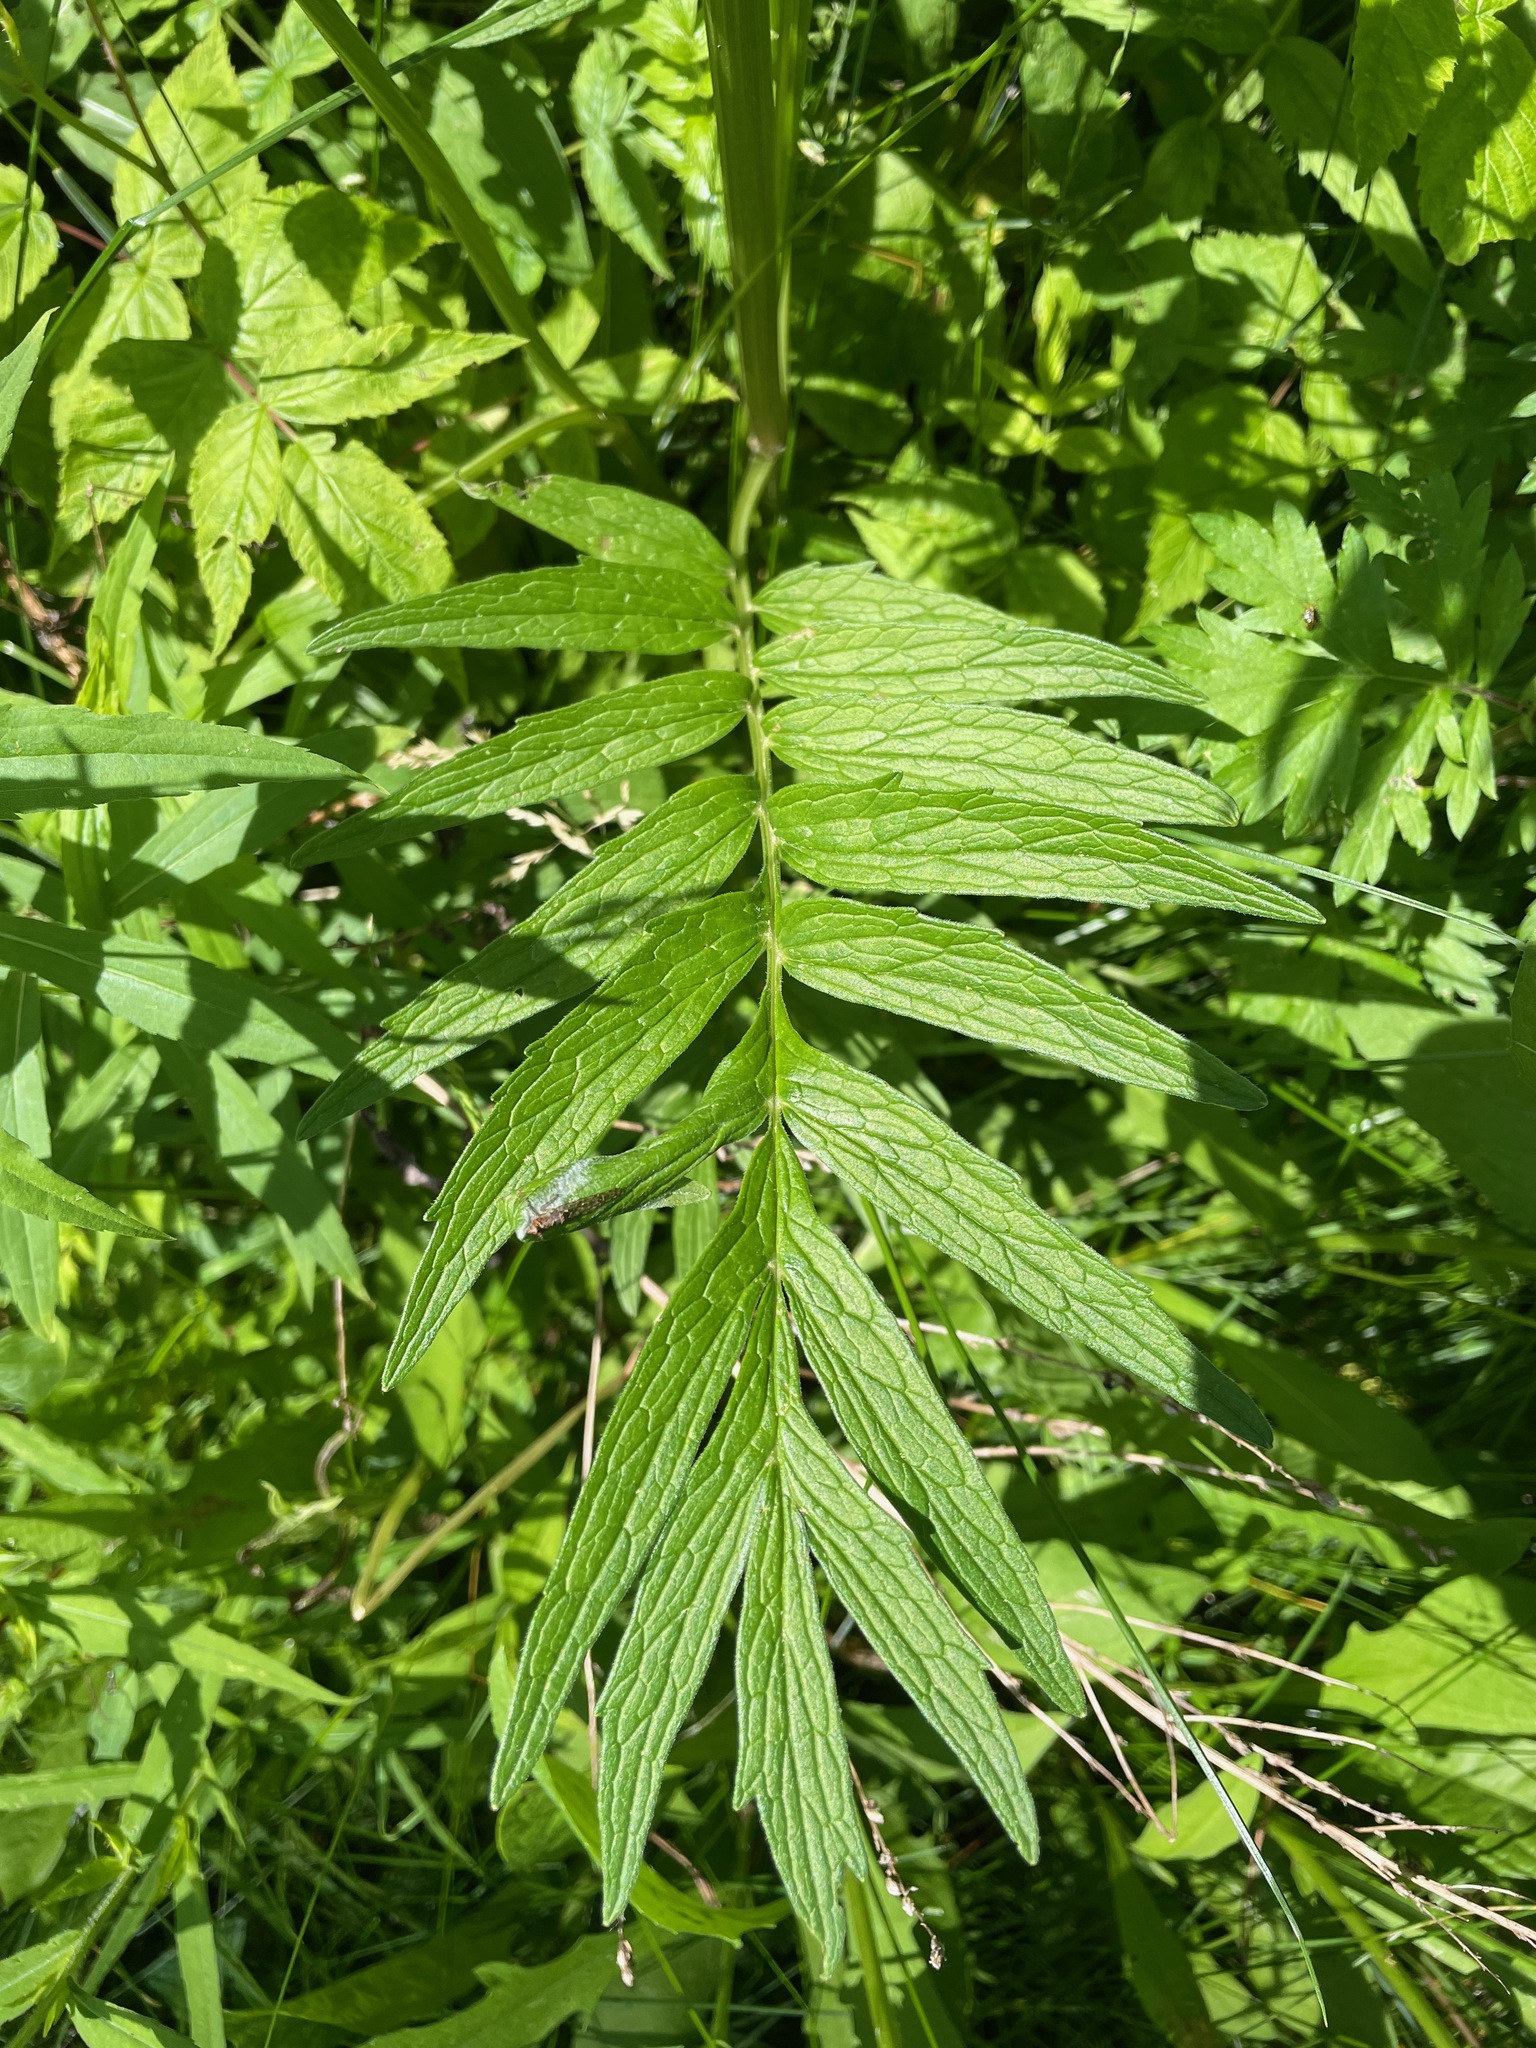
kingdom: Plantae
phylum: Tracheophyta
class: Magnoliopsida
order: Dipsacales
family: Caprifoliaceae
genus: Valeriana
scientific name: Valeriana officinalis
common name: Common valerian
